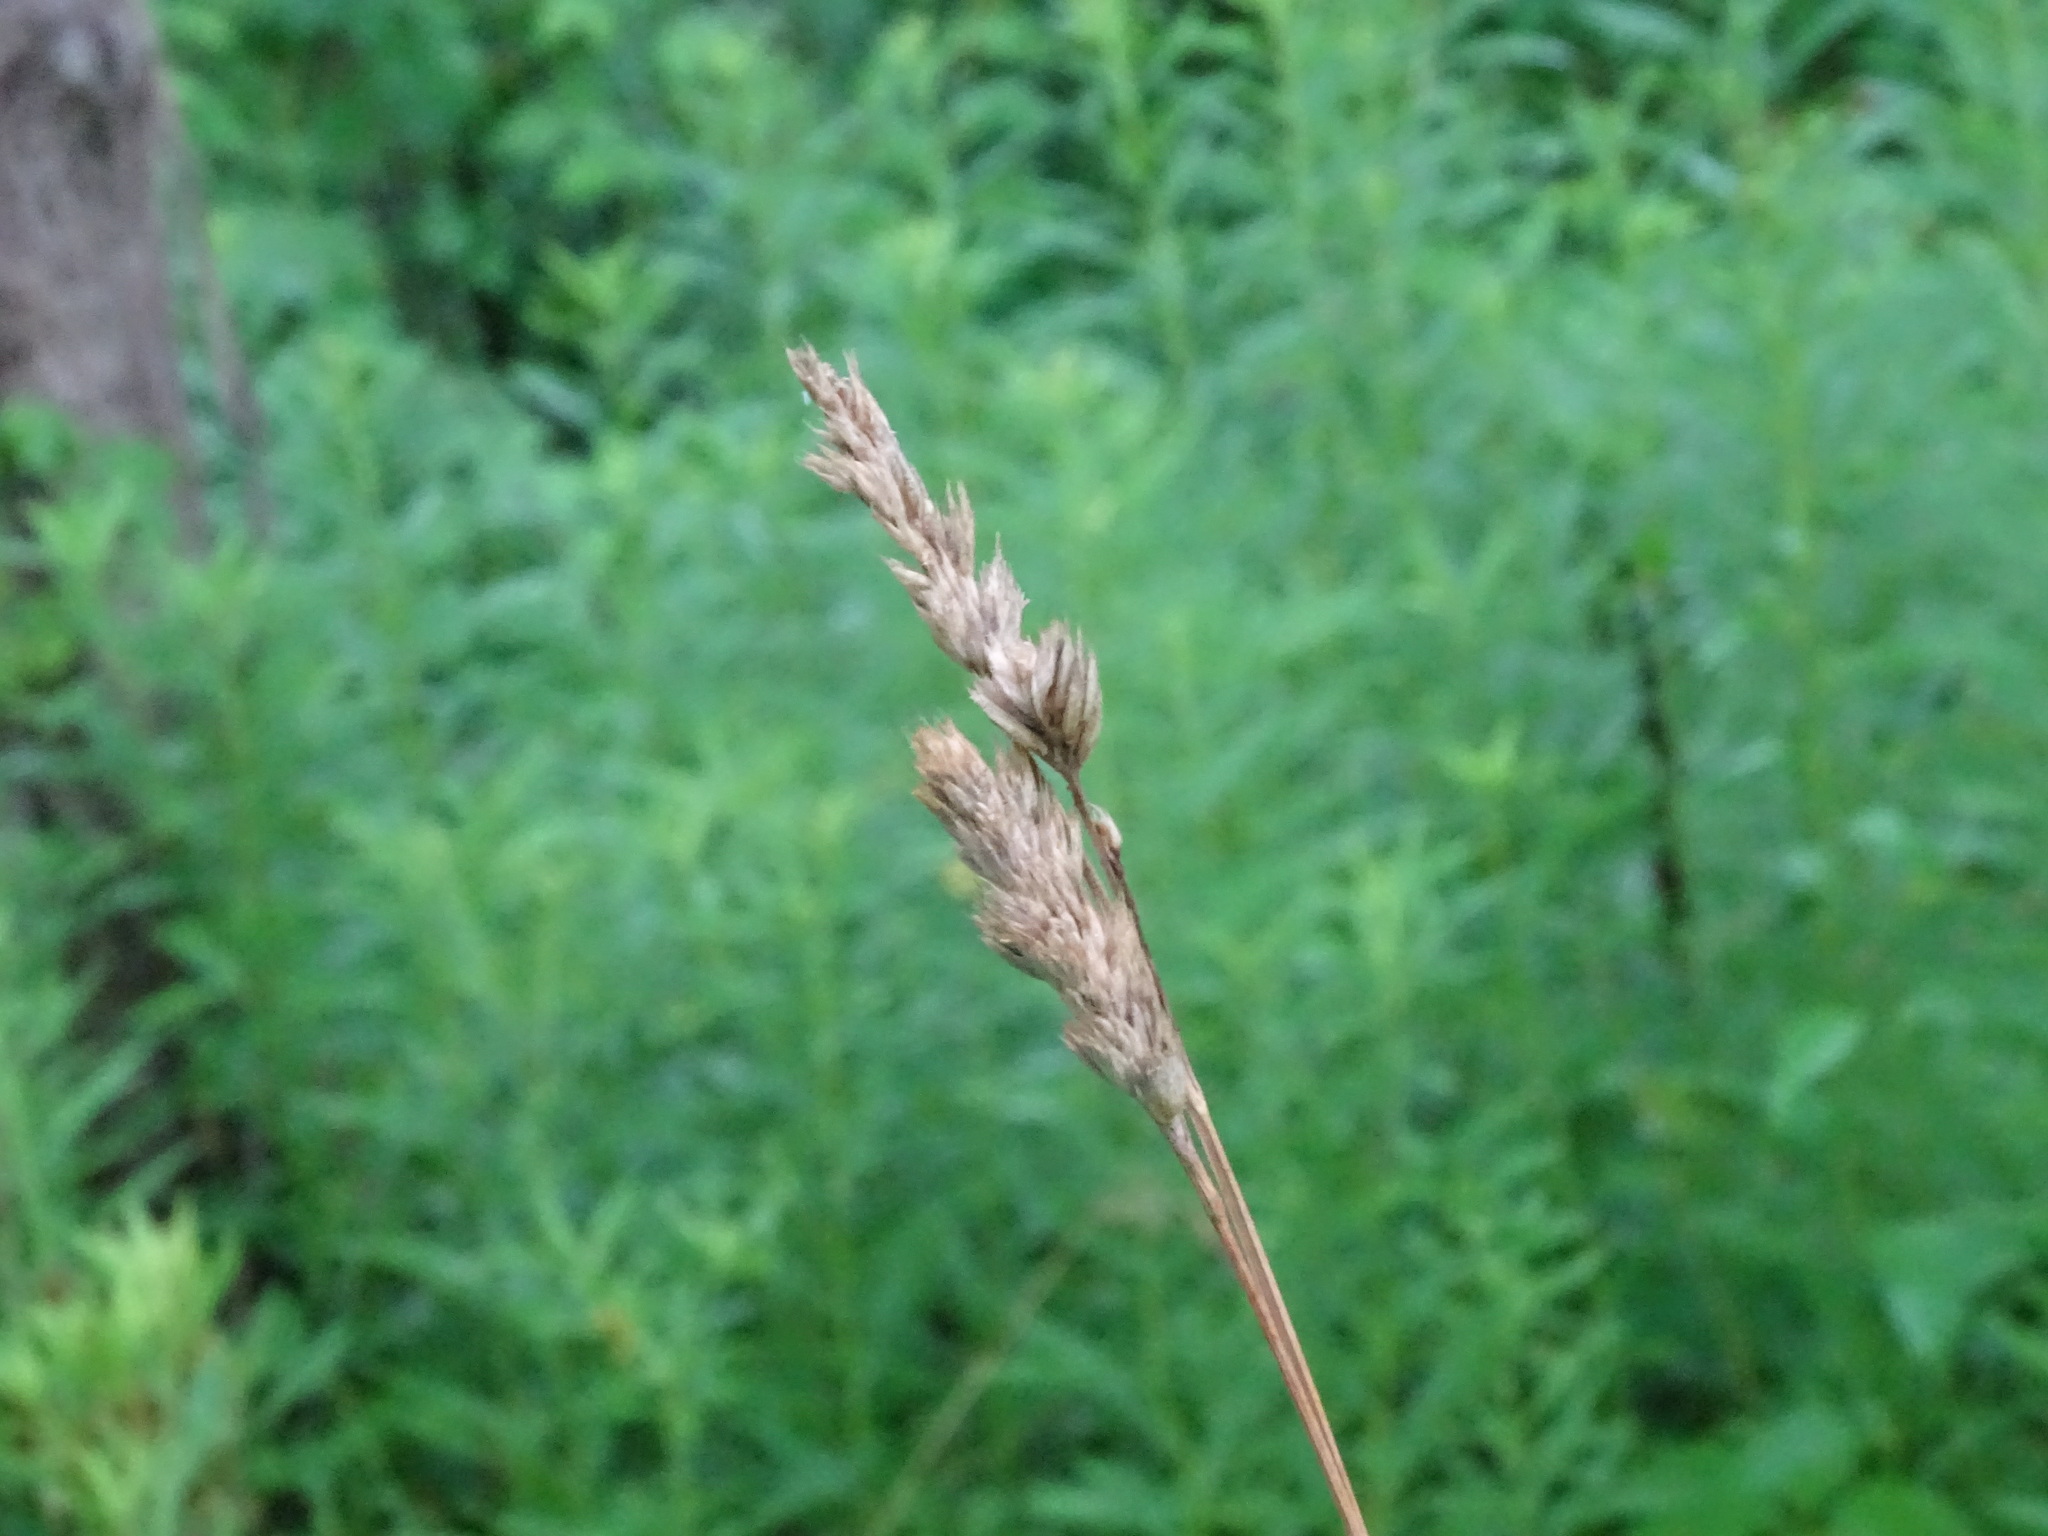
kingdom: Plantae
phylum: Tracheophyta
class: Liliopsida
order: Poales
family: Poaceae
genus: Dactylis
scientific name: Dactylis glomerata
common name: Orchardgrass
